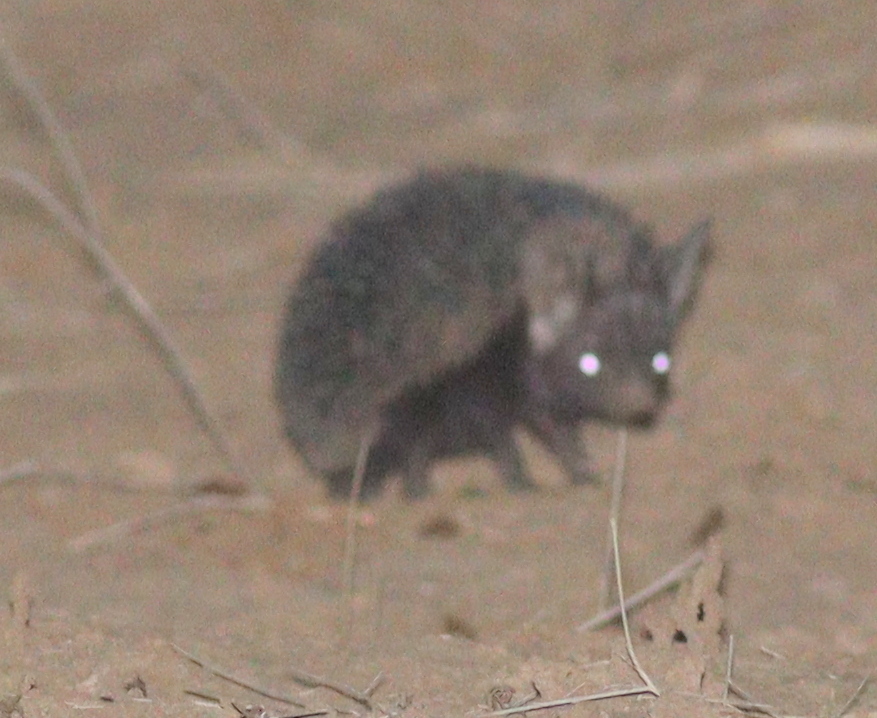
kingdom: Animalia
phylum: Chordata
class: Mammalia
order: Erinaceomorpha
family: Erinaceidae
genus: Paraechinus
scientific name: Paraechinus aethiopicus
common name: Desert hedgehog
